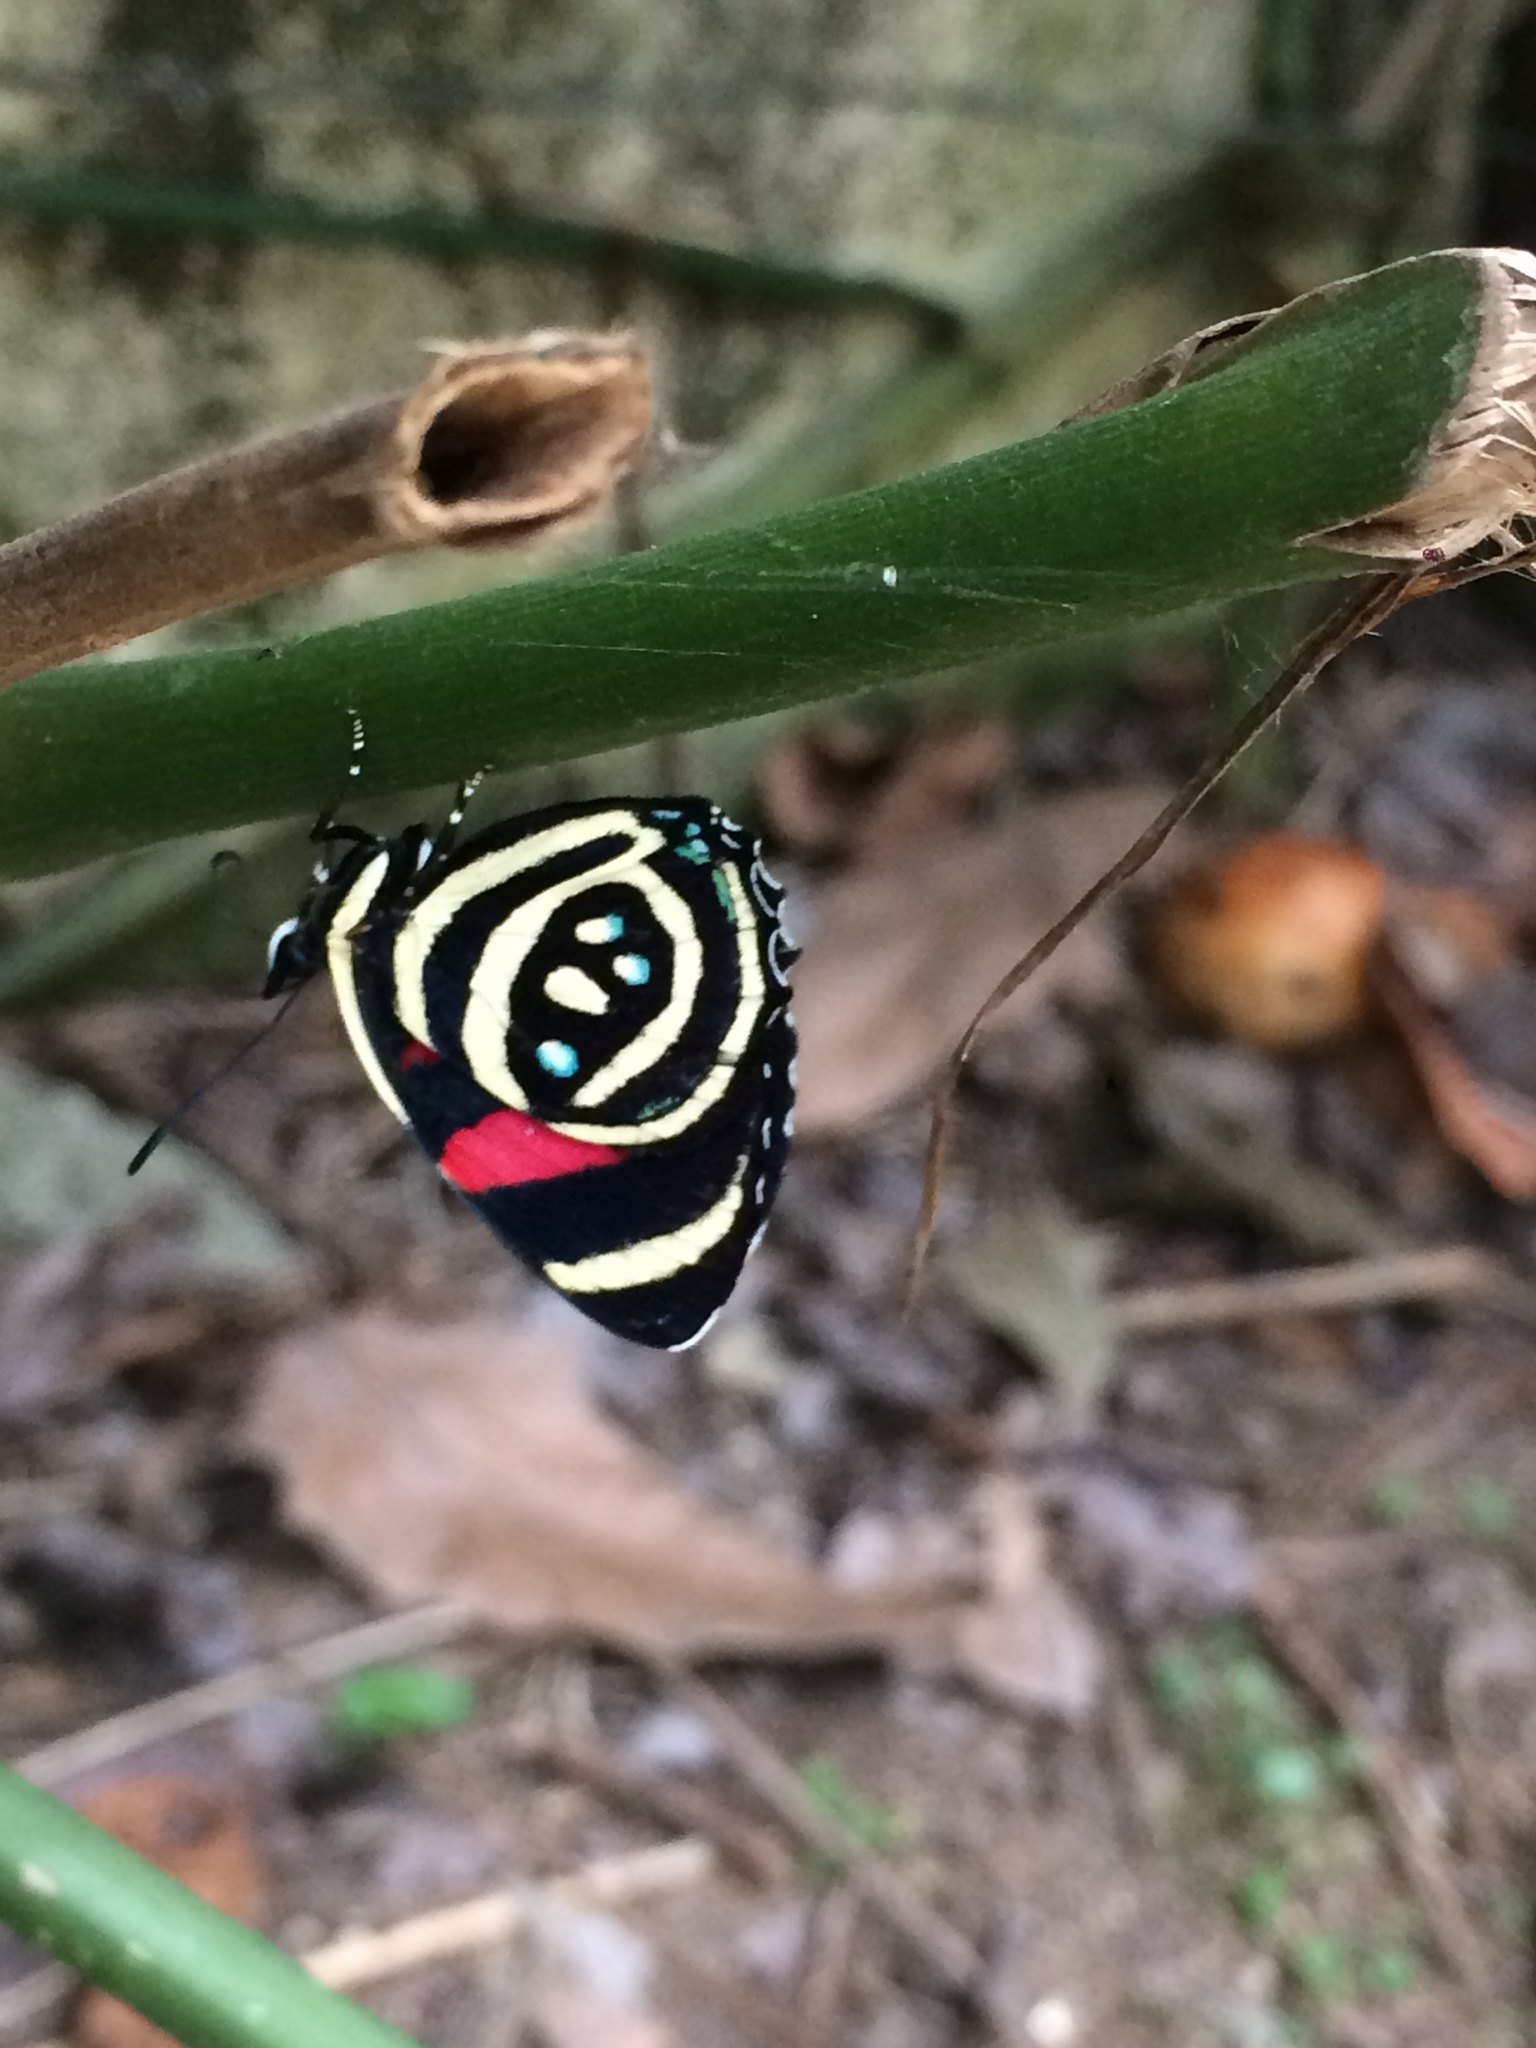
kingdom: Animalia
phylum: Arthropoda
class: Insecta
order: Lepidoptera
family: Nymphalidae
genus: Catagramma
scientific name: Catagramma Callicore hydaspes
